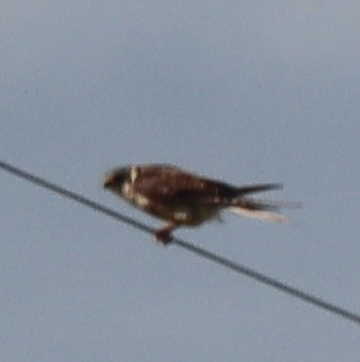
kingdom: Animalia
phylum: Chordata
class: Aves
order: Falconiformes
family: Falconidae
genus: Falco
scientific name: Falco sparverius
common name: American kestrel
